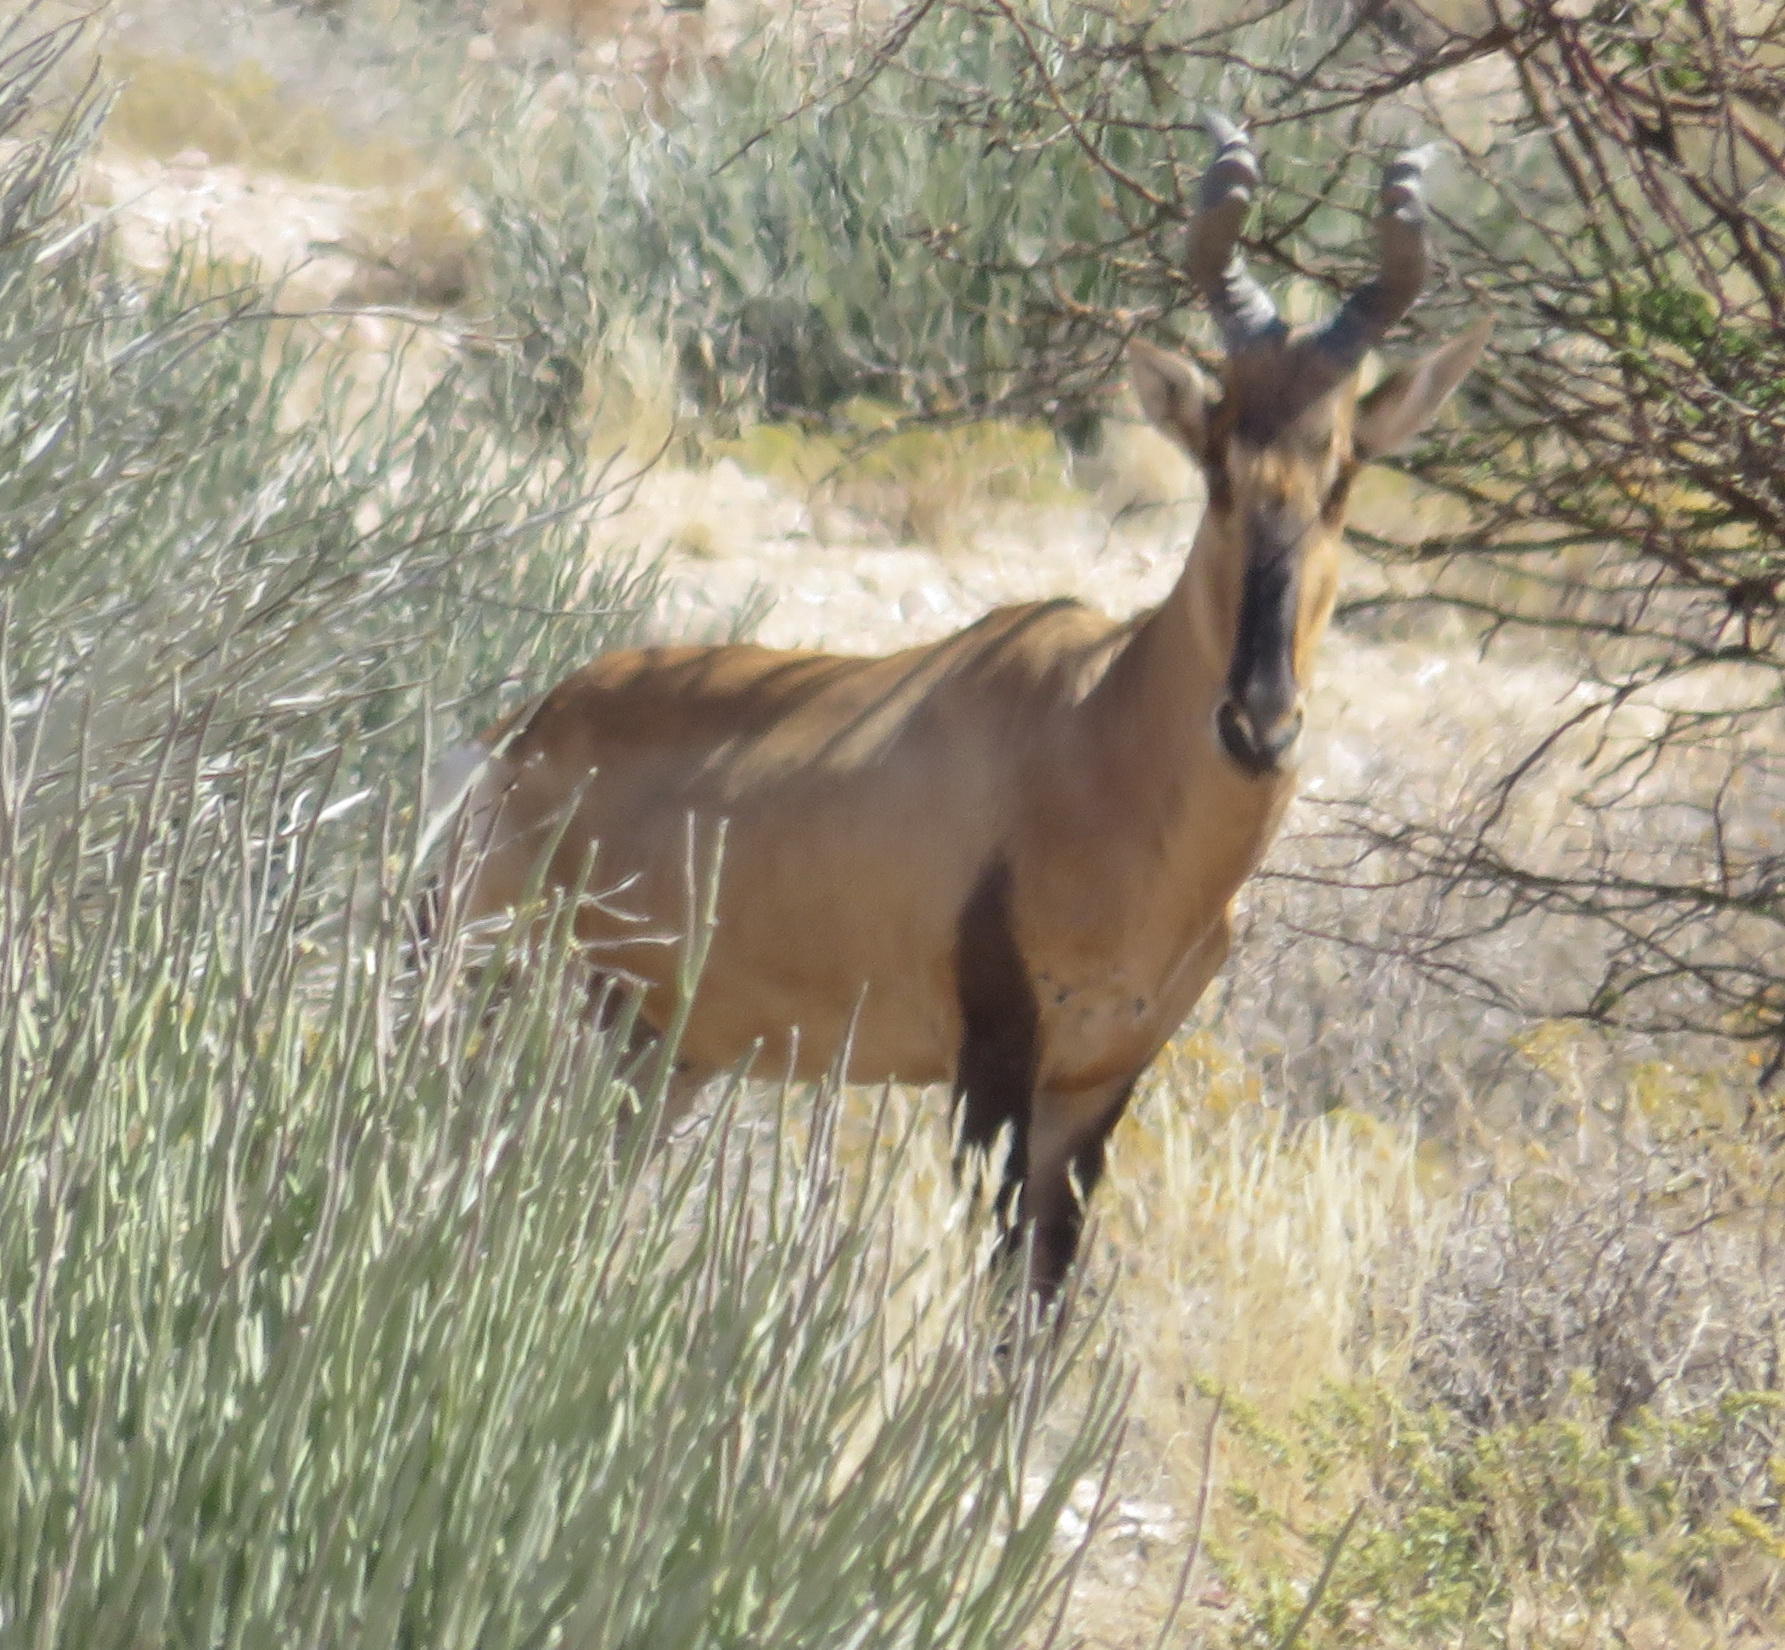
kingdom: Animalia
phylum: Chordata
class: Mammalia
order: Artiodactyla
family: Bovidae
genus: Alcelaphus
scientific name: Alcelaphus caama
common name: Red hartebeest
